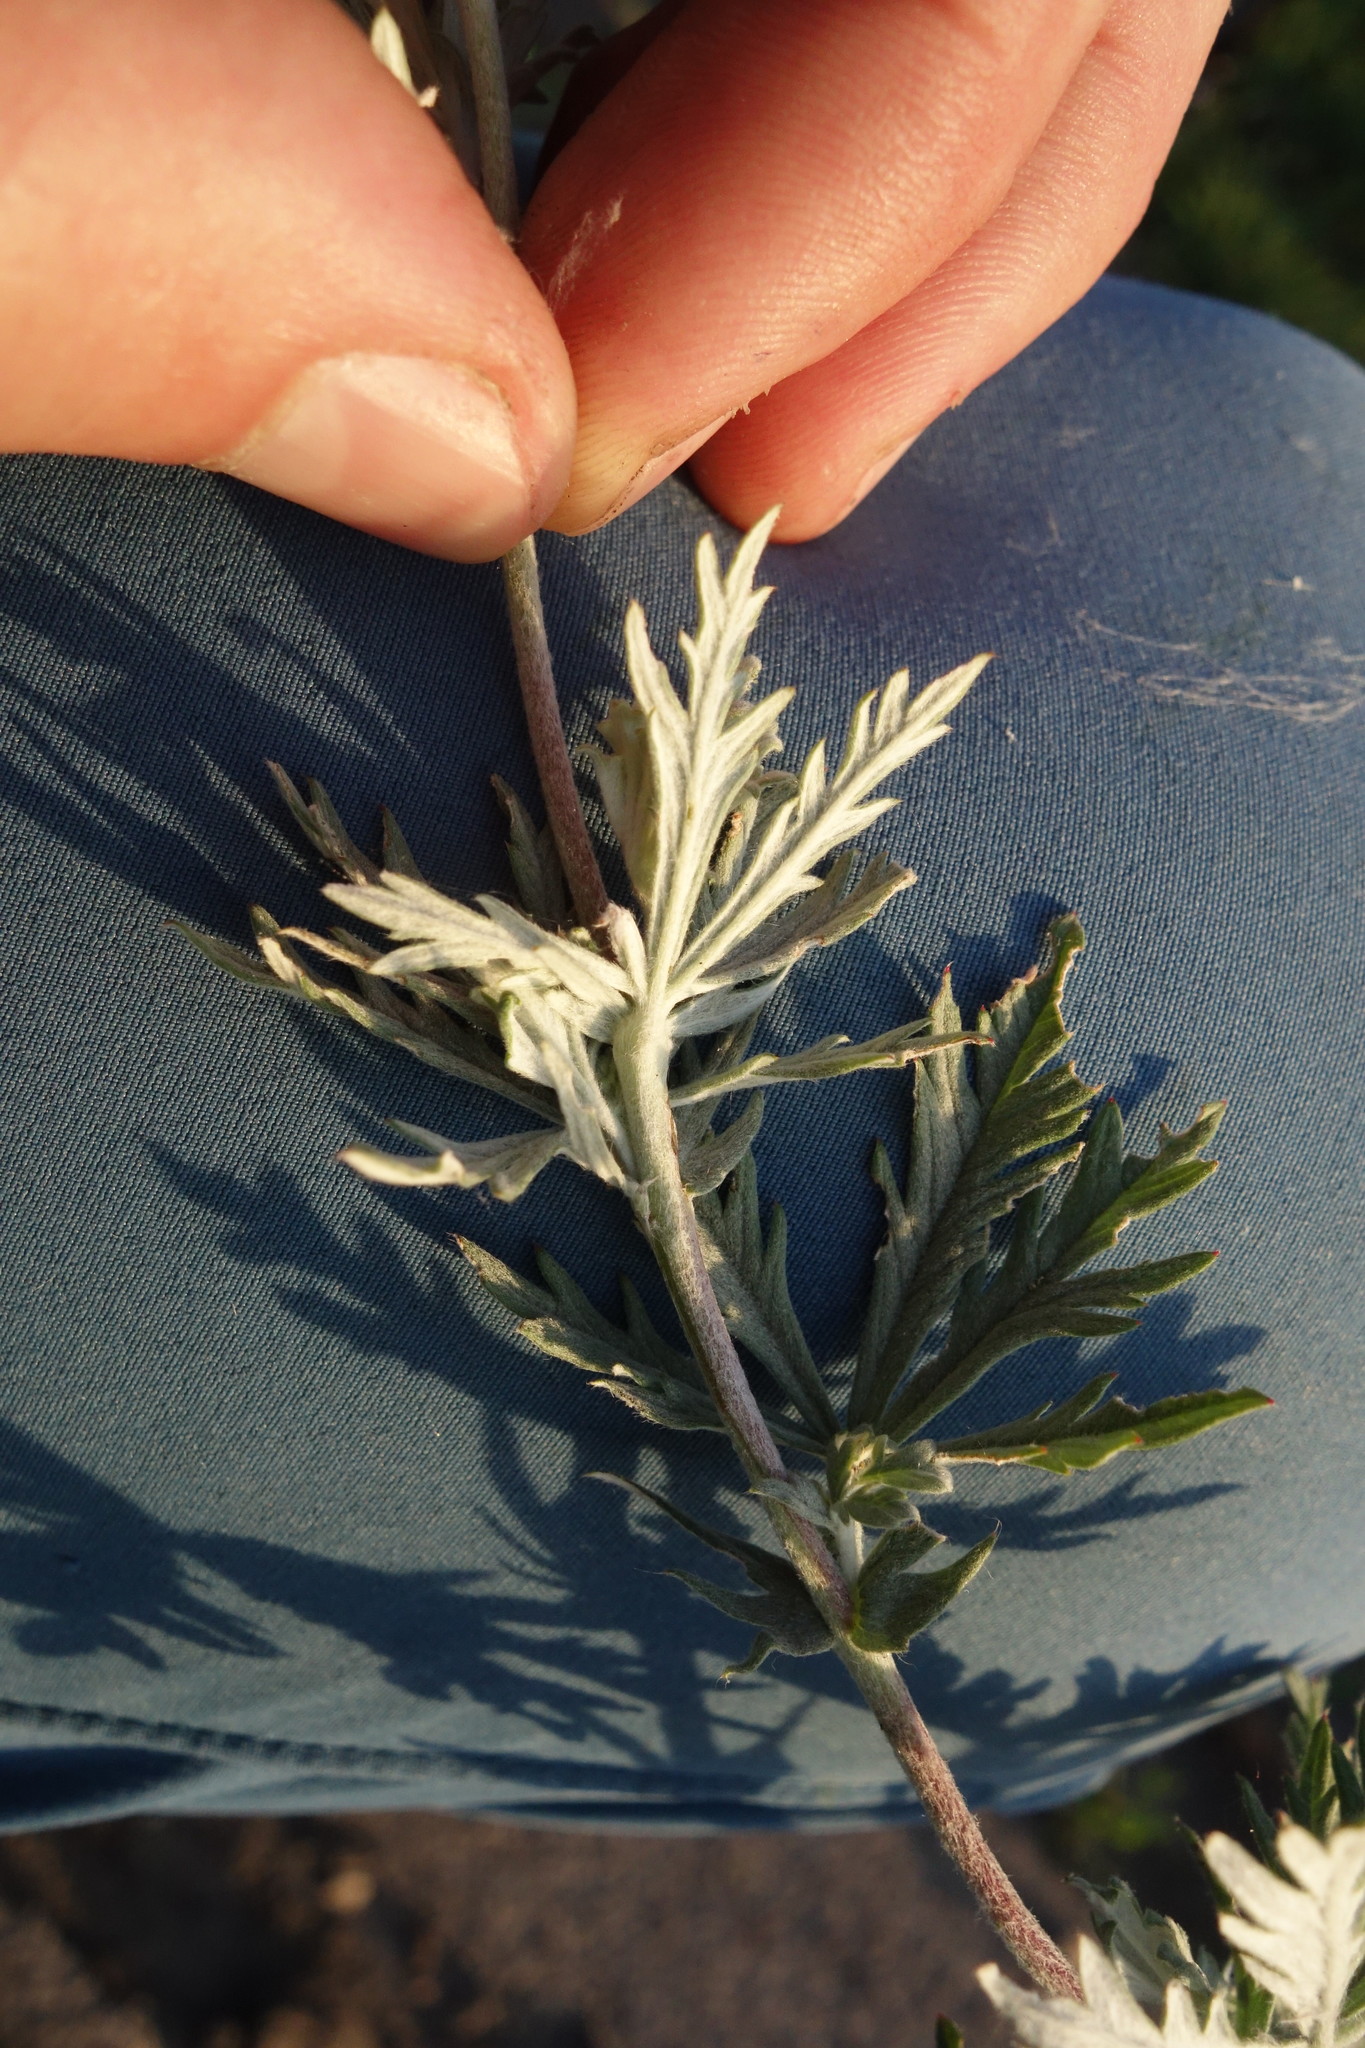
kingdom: Plantae
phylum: Tracheophyta
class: Magnoliopsida
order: Rosales
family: Rosaceae
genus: Potentilla
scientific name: Potentilla argentea
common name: Hoary cinquefoil
